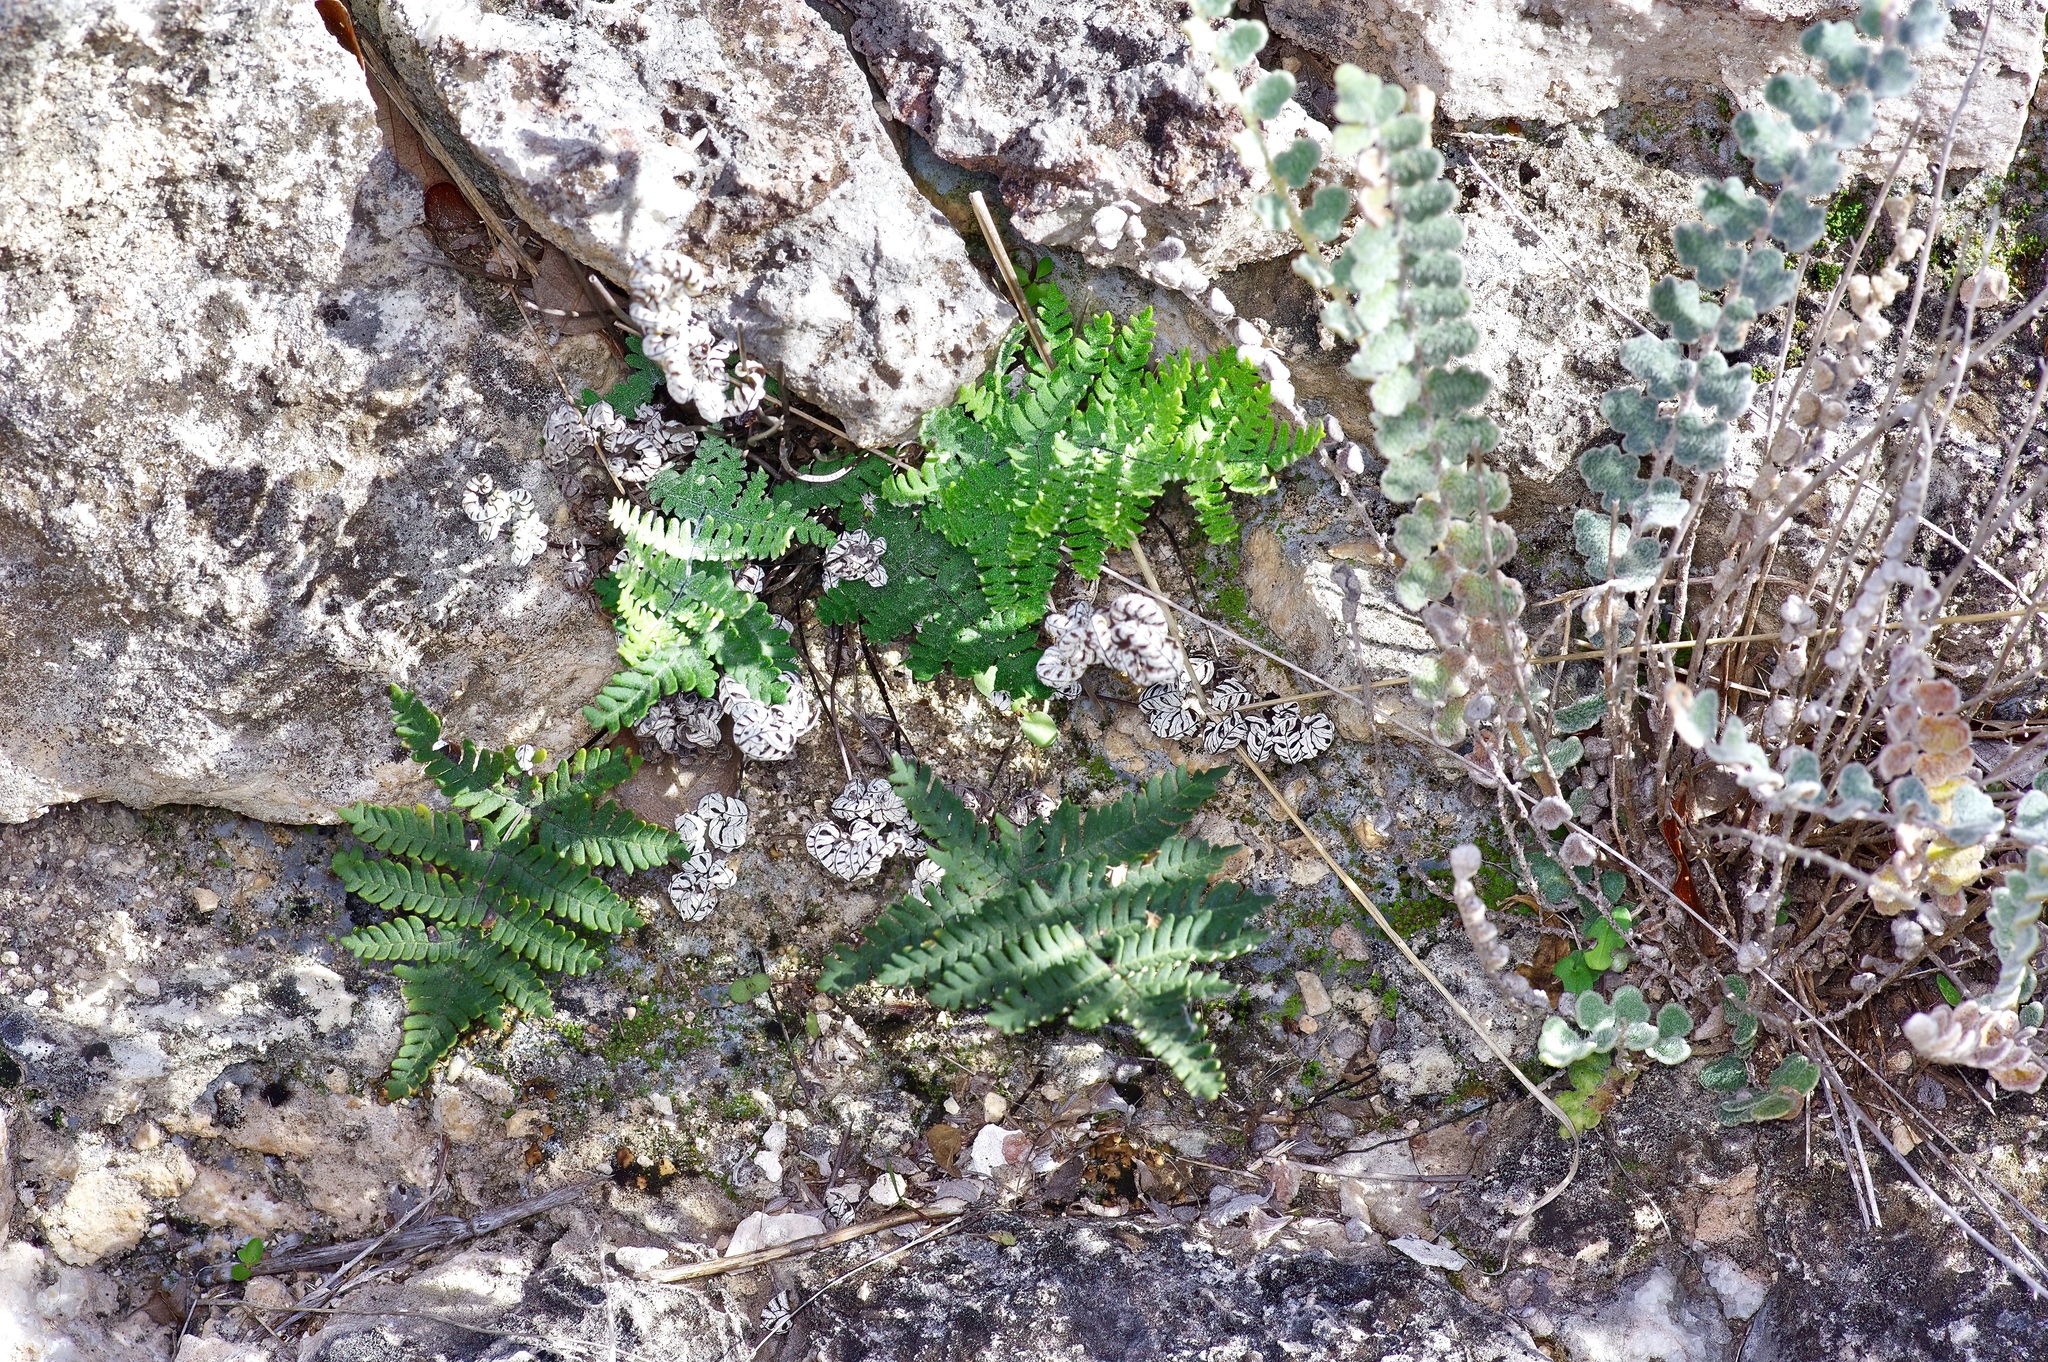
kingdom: Plantae
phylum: Tracheophyta
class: Polypodiopsida
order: Polypodiales
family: Pteridaceae
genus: Notholaena
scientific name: Notholaena candida
